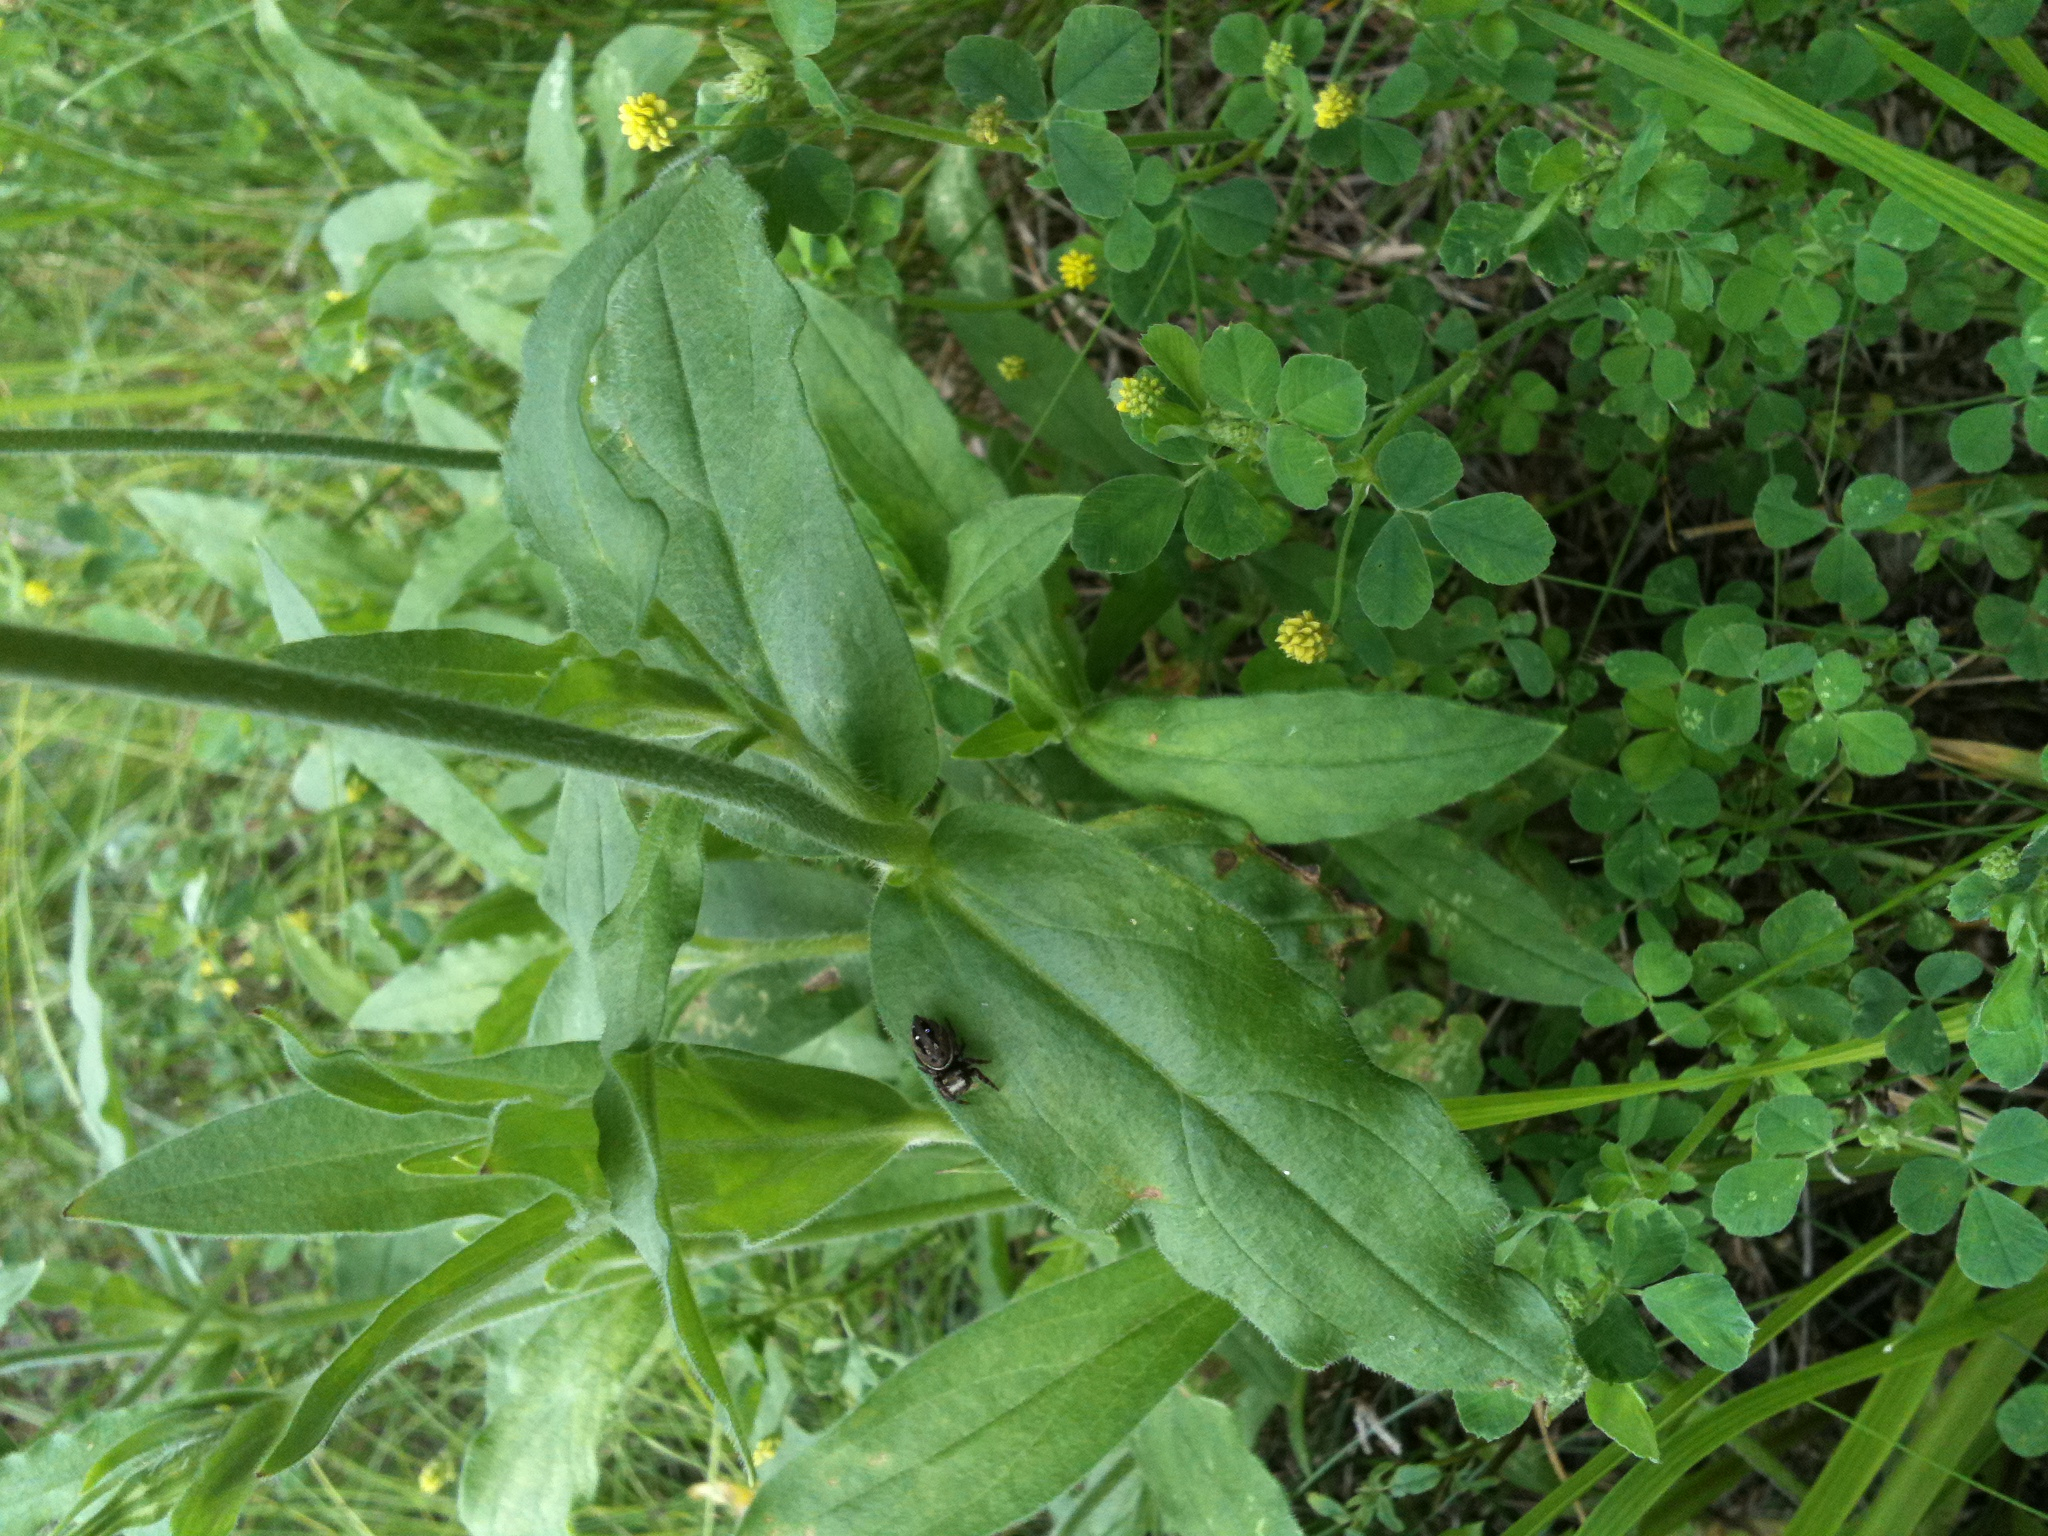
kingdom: Plantae
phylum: Tracheophyta
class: Magnoliopsida
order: Caryophyllales
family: Caryophyllaceae
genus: Silene
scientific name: Silene latifolia
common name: White campion
